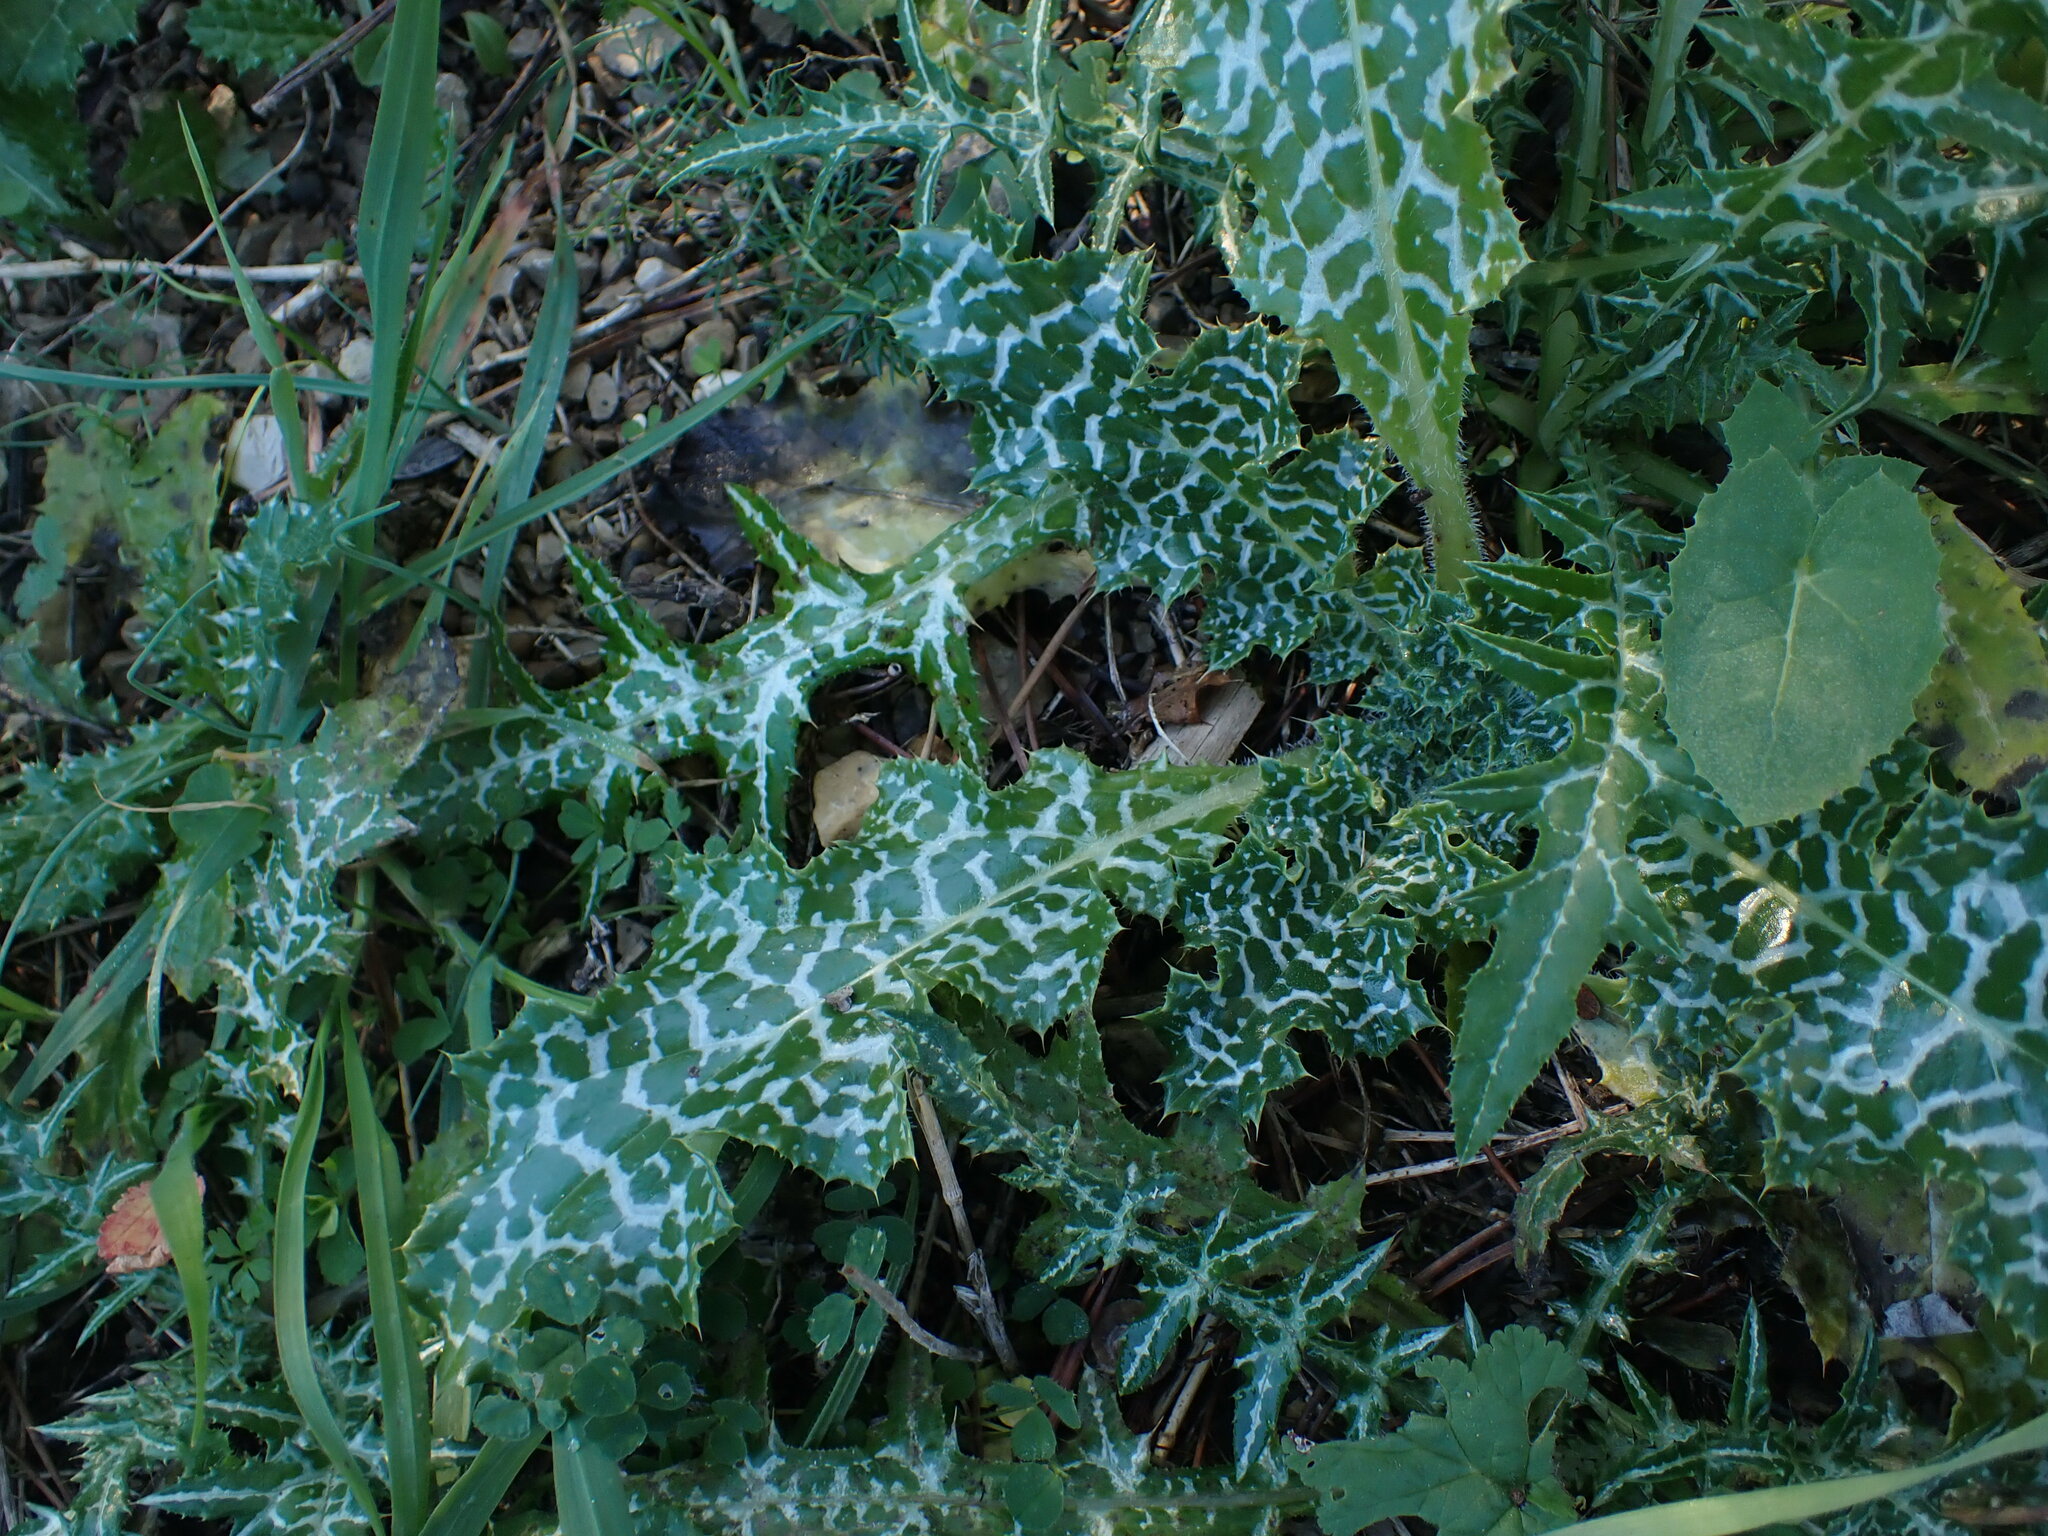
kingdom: Plantae
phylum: Tracheophyta
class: Magnoliopsida
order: Asterales
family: Asteraceae
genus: Silybum
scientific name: Silybum marianum
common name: Milk thistle
